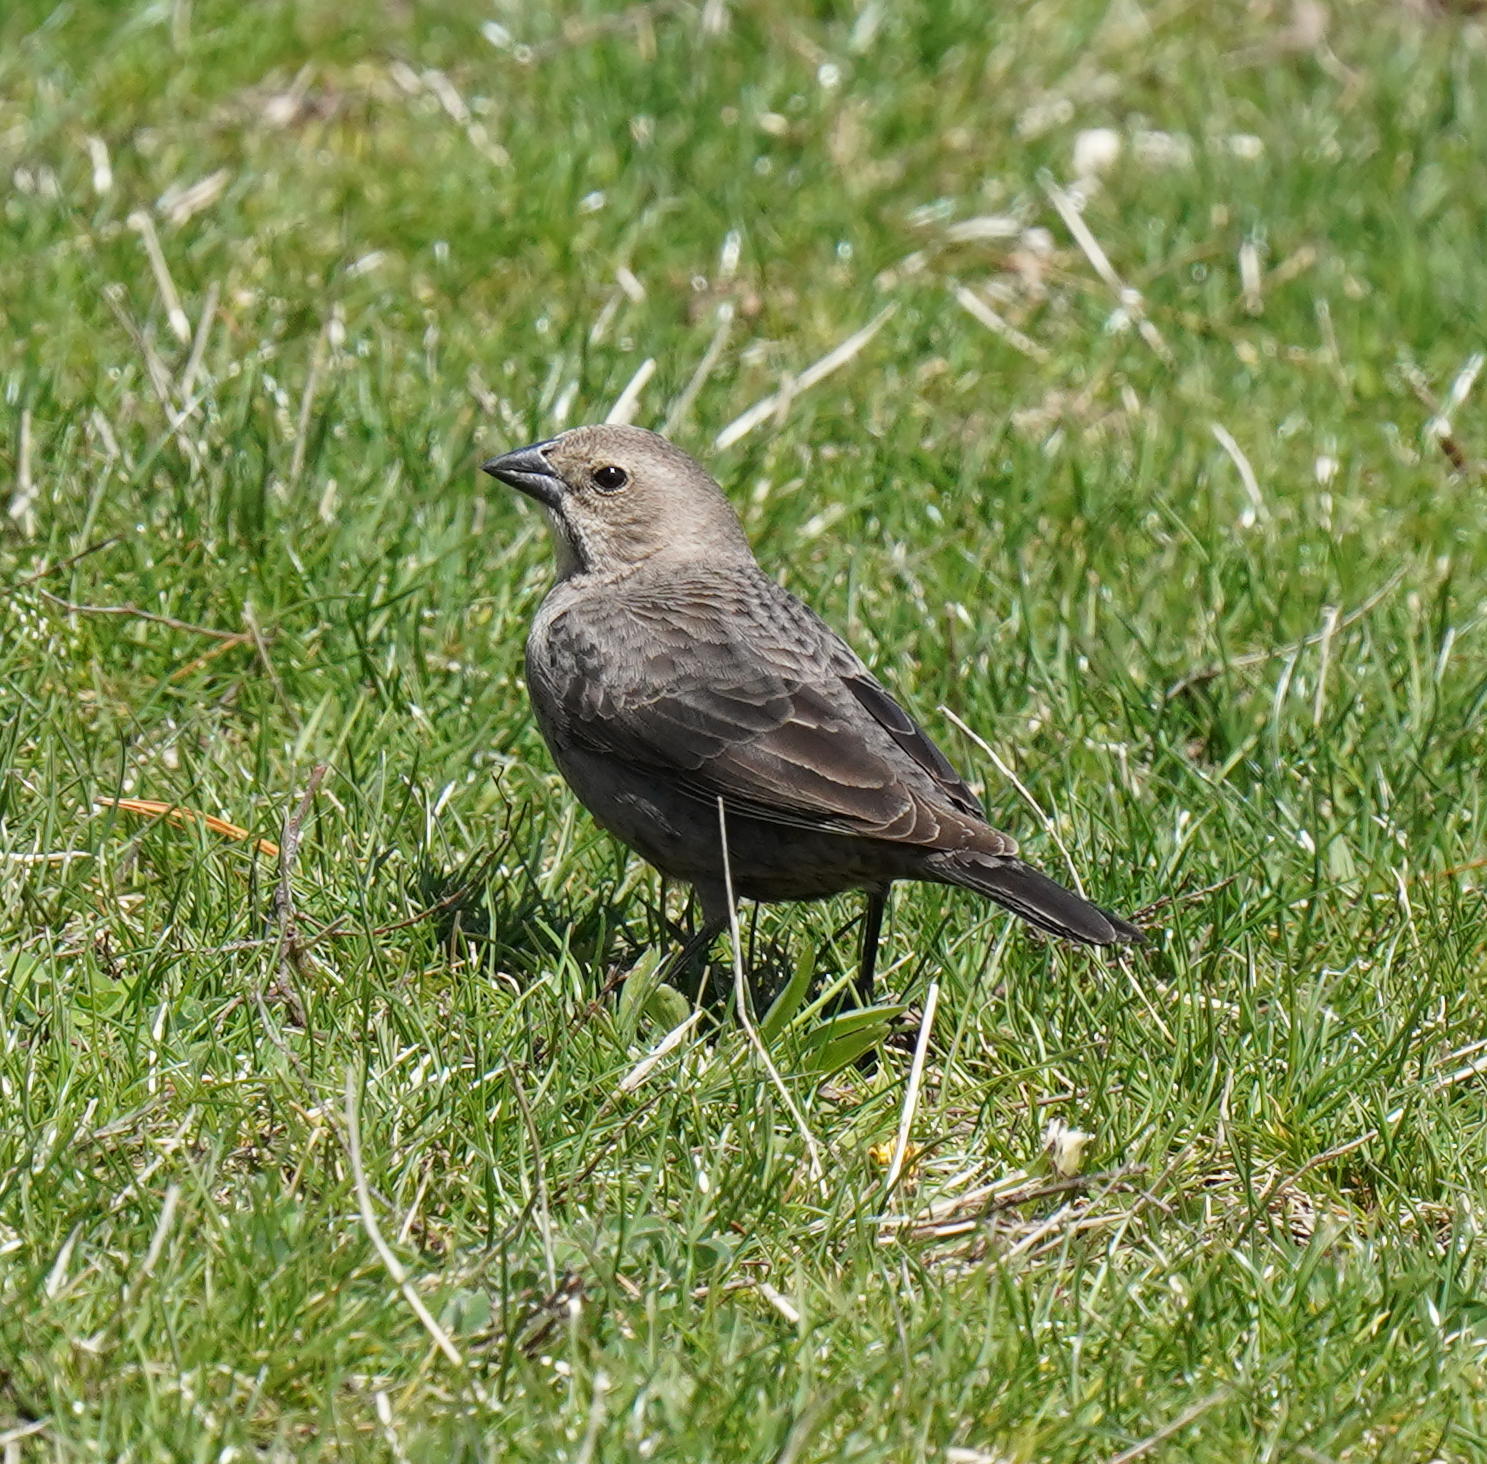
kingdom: Animalia
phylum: Chordata
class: Aves
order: Passeriformes
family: Icteridae
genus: Molothrus
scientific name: Molothrus ater
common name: Brown-headed cowbird
